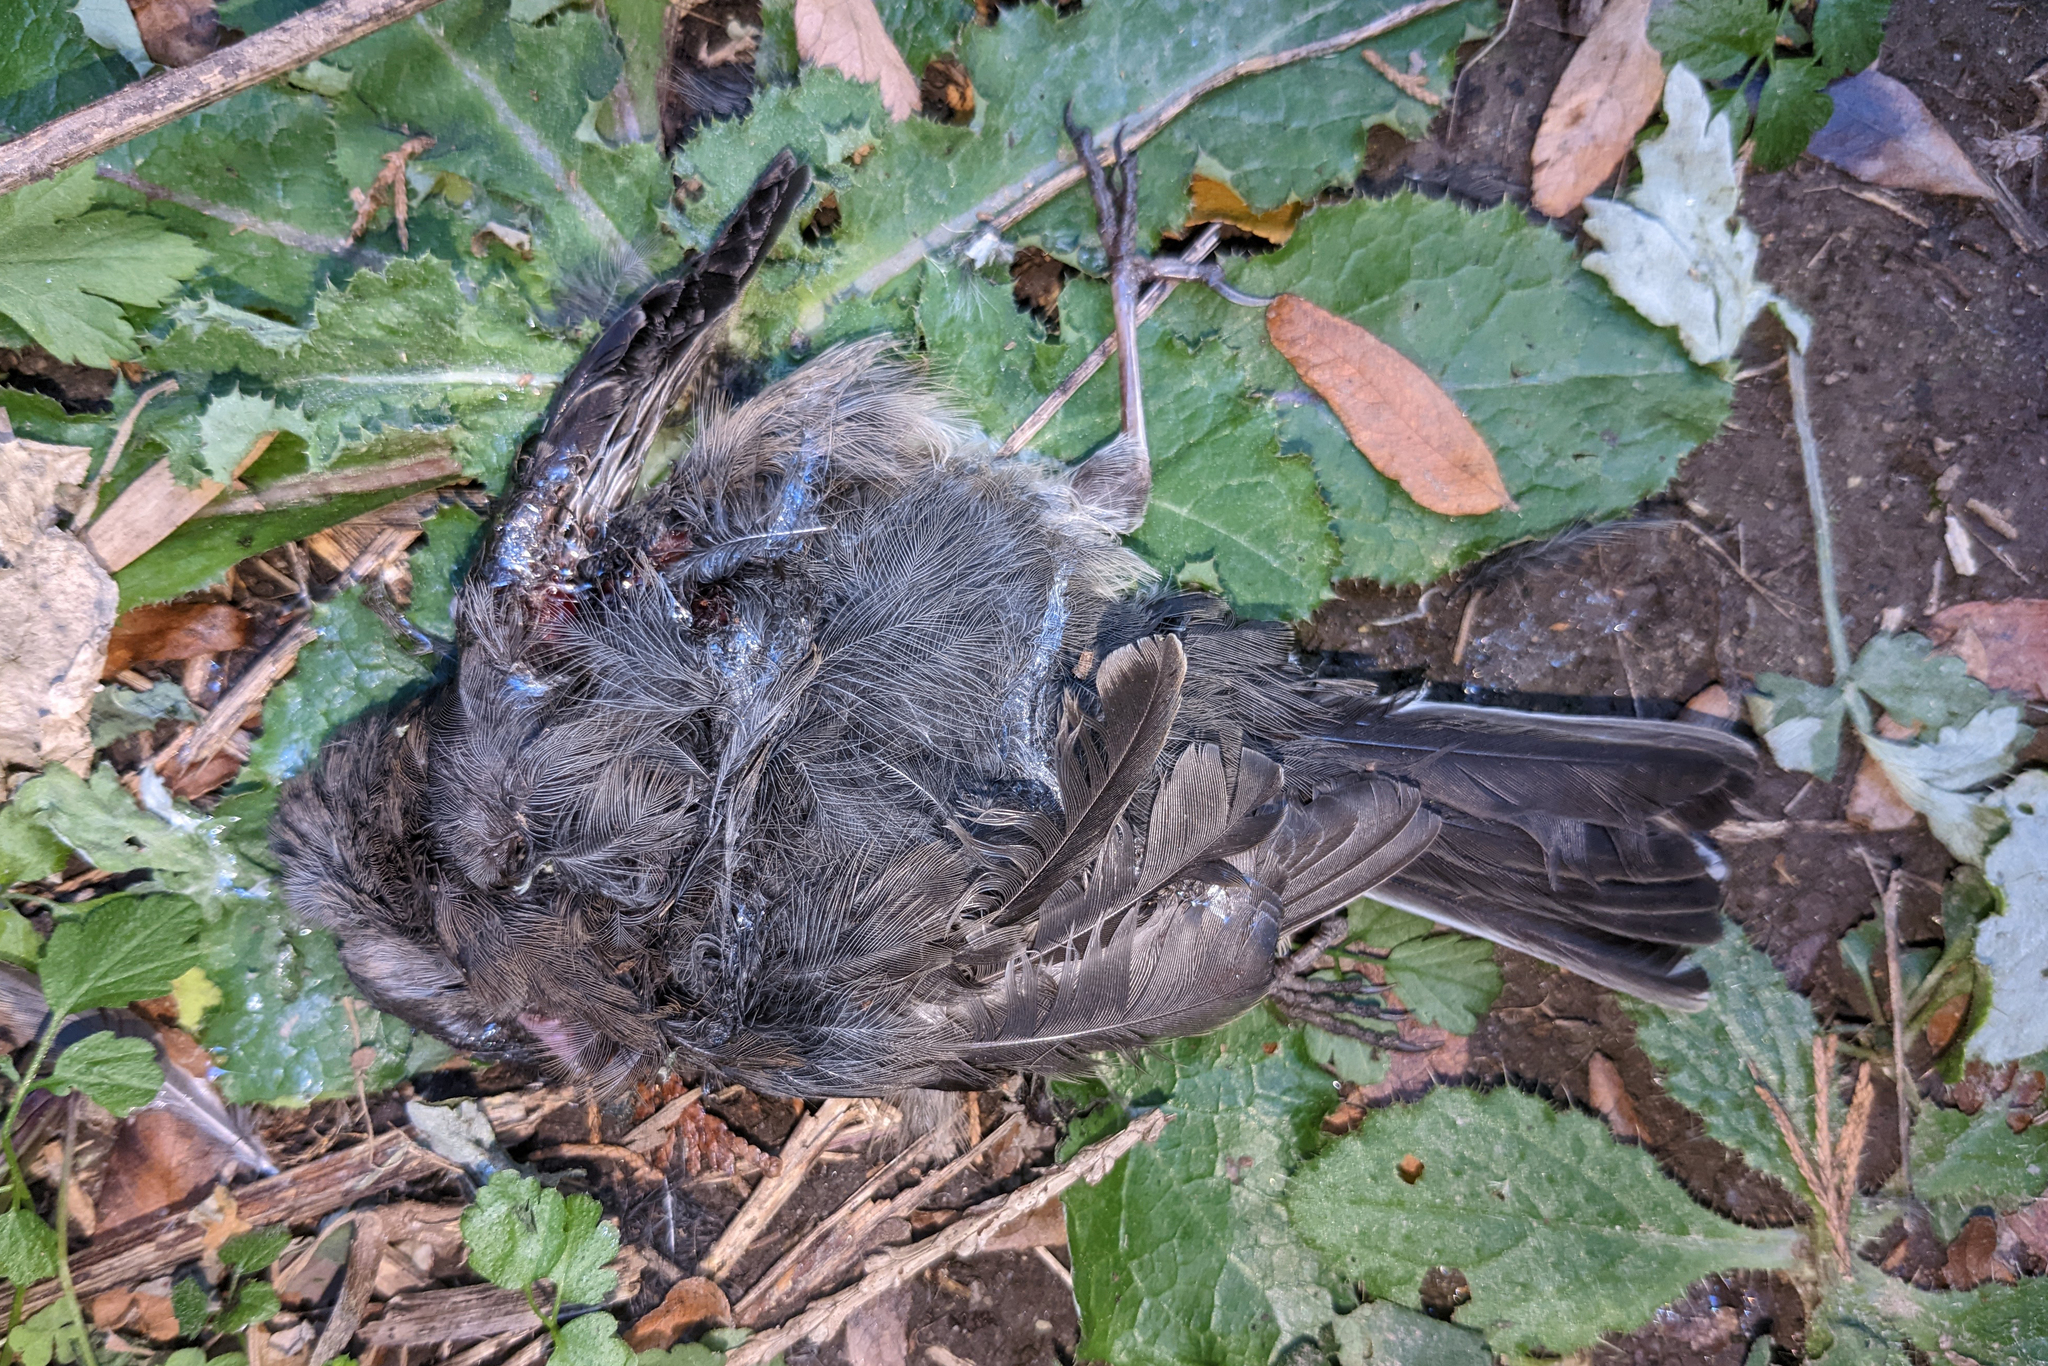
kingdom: Animalia
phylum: Chordata
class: Aves
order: Passeriformes
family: Passerellidae
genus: Junco
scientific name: Junco hyemalis
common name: Dark-eyed junco
